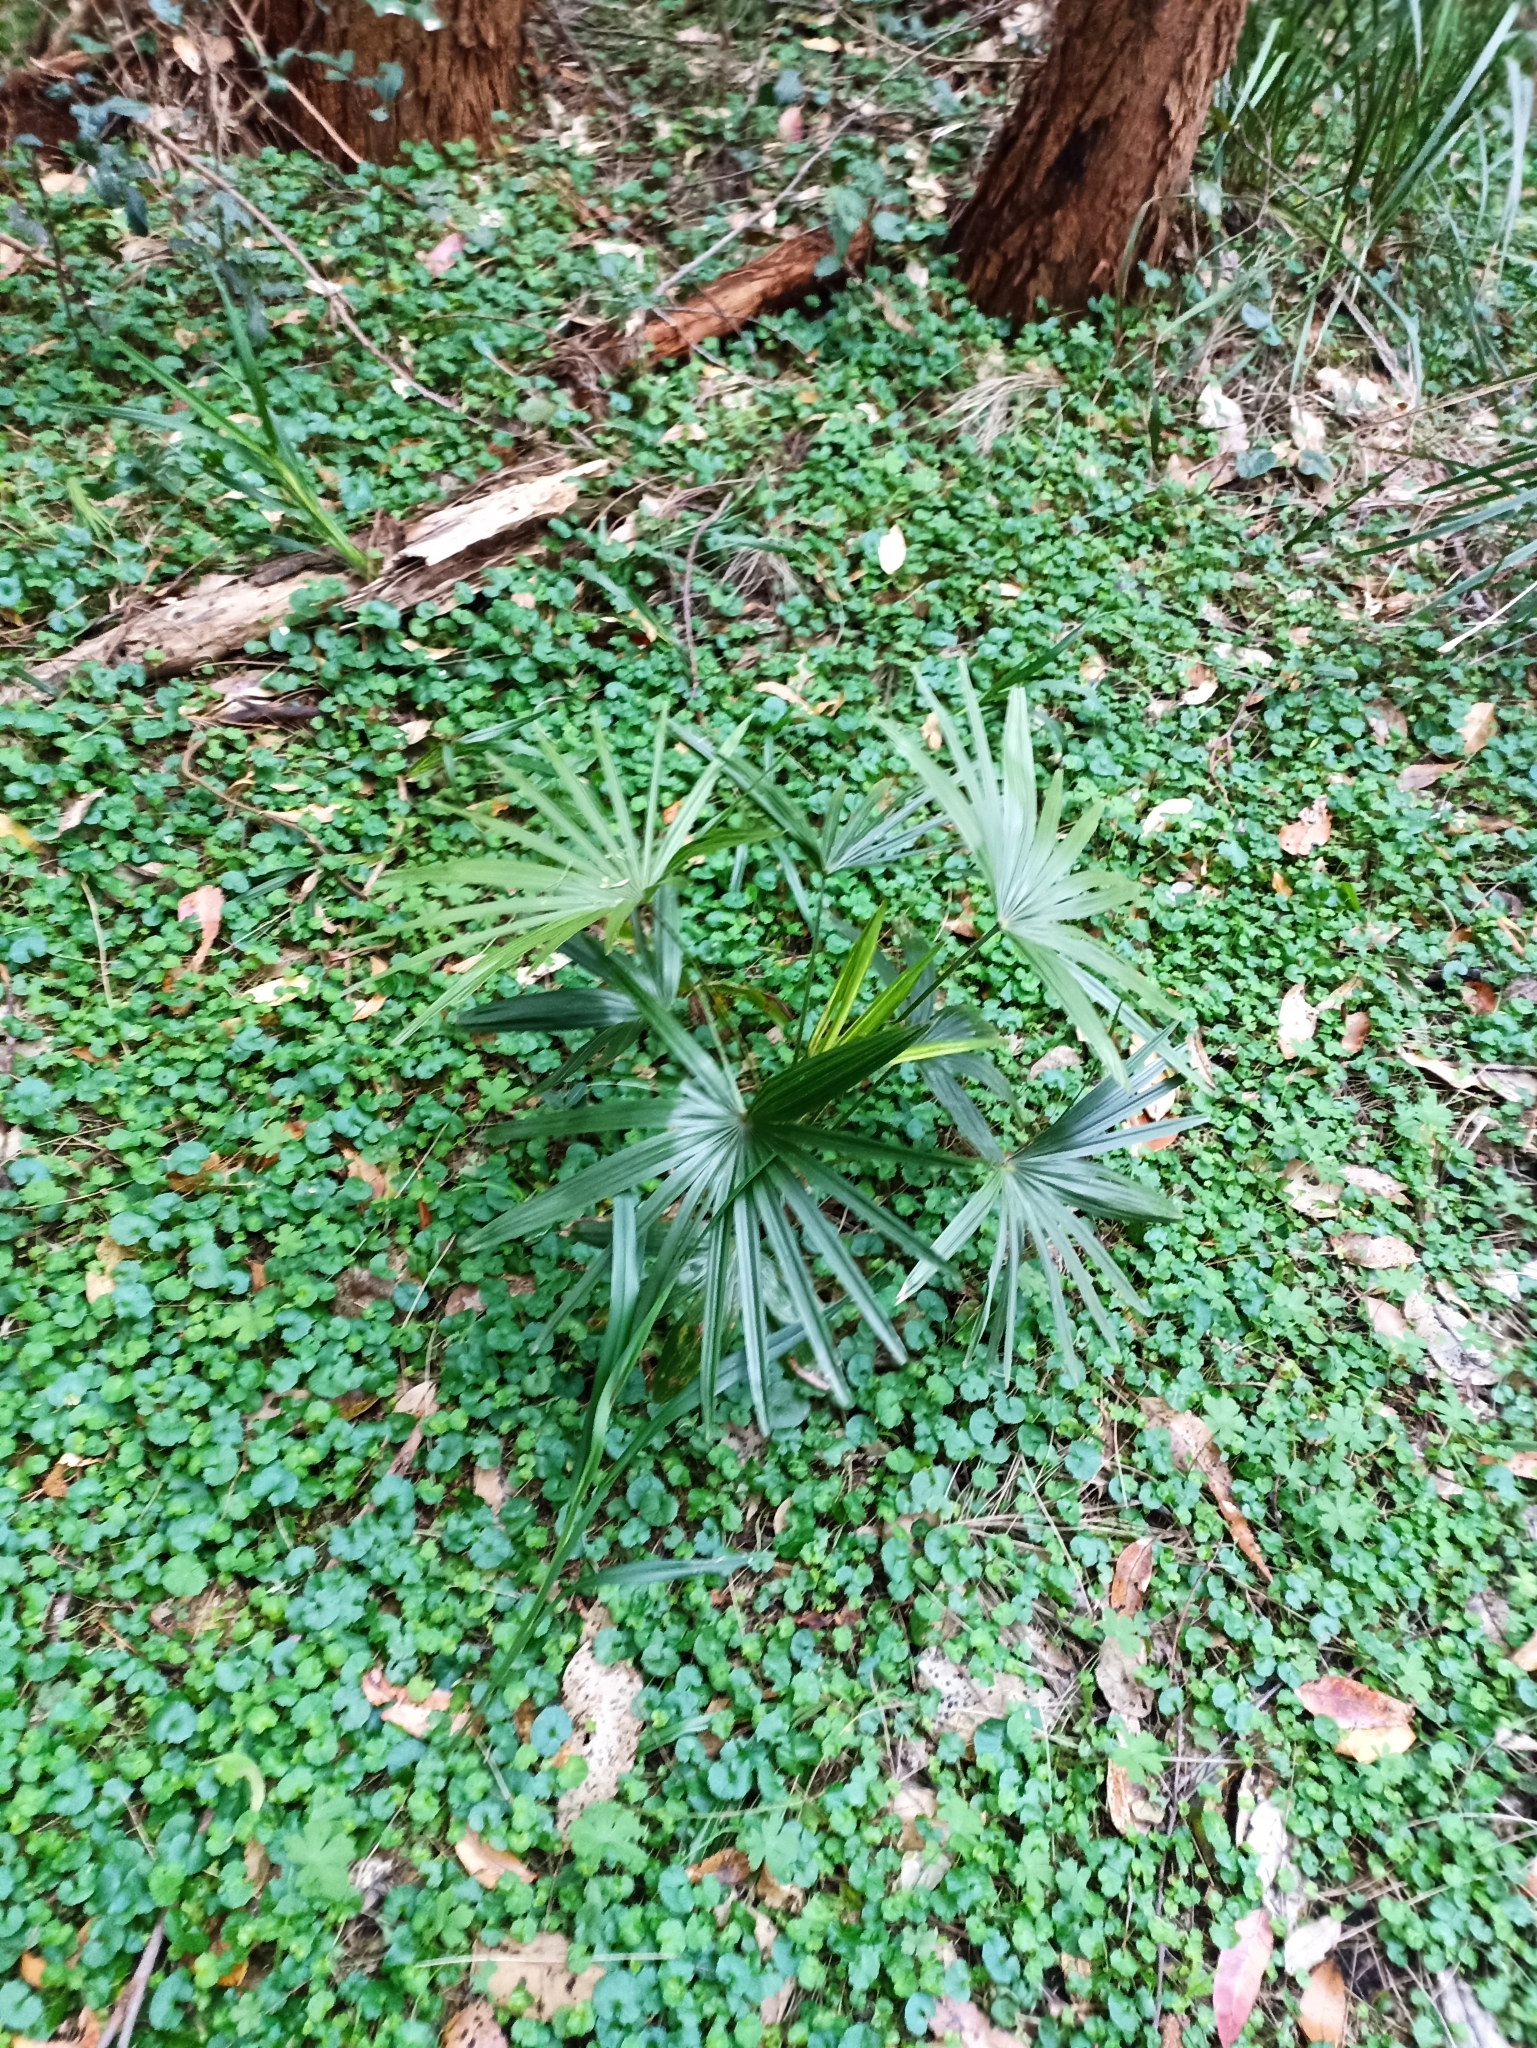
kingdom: Plantae
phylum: Tracheophyta
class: Liliopsida
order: Arecales
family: Arecaceae
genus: Livistona
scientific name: Livistona australis
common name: Cabbage fan palm
